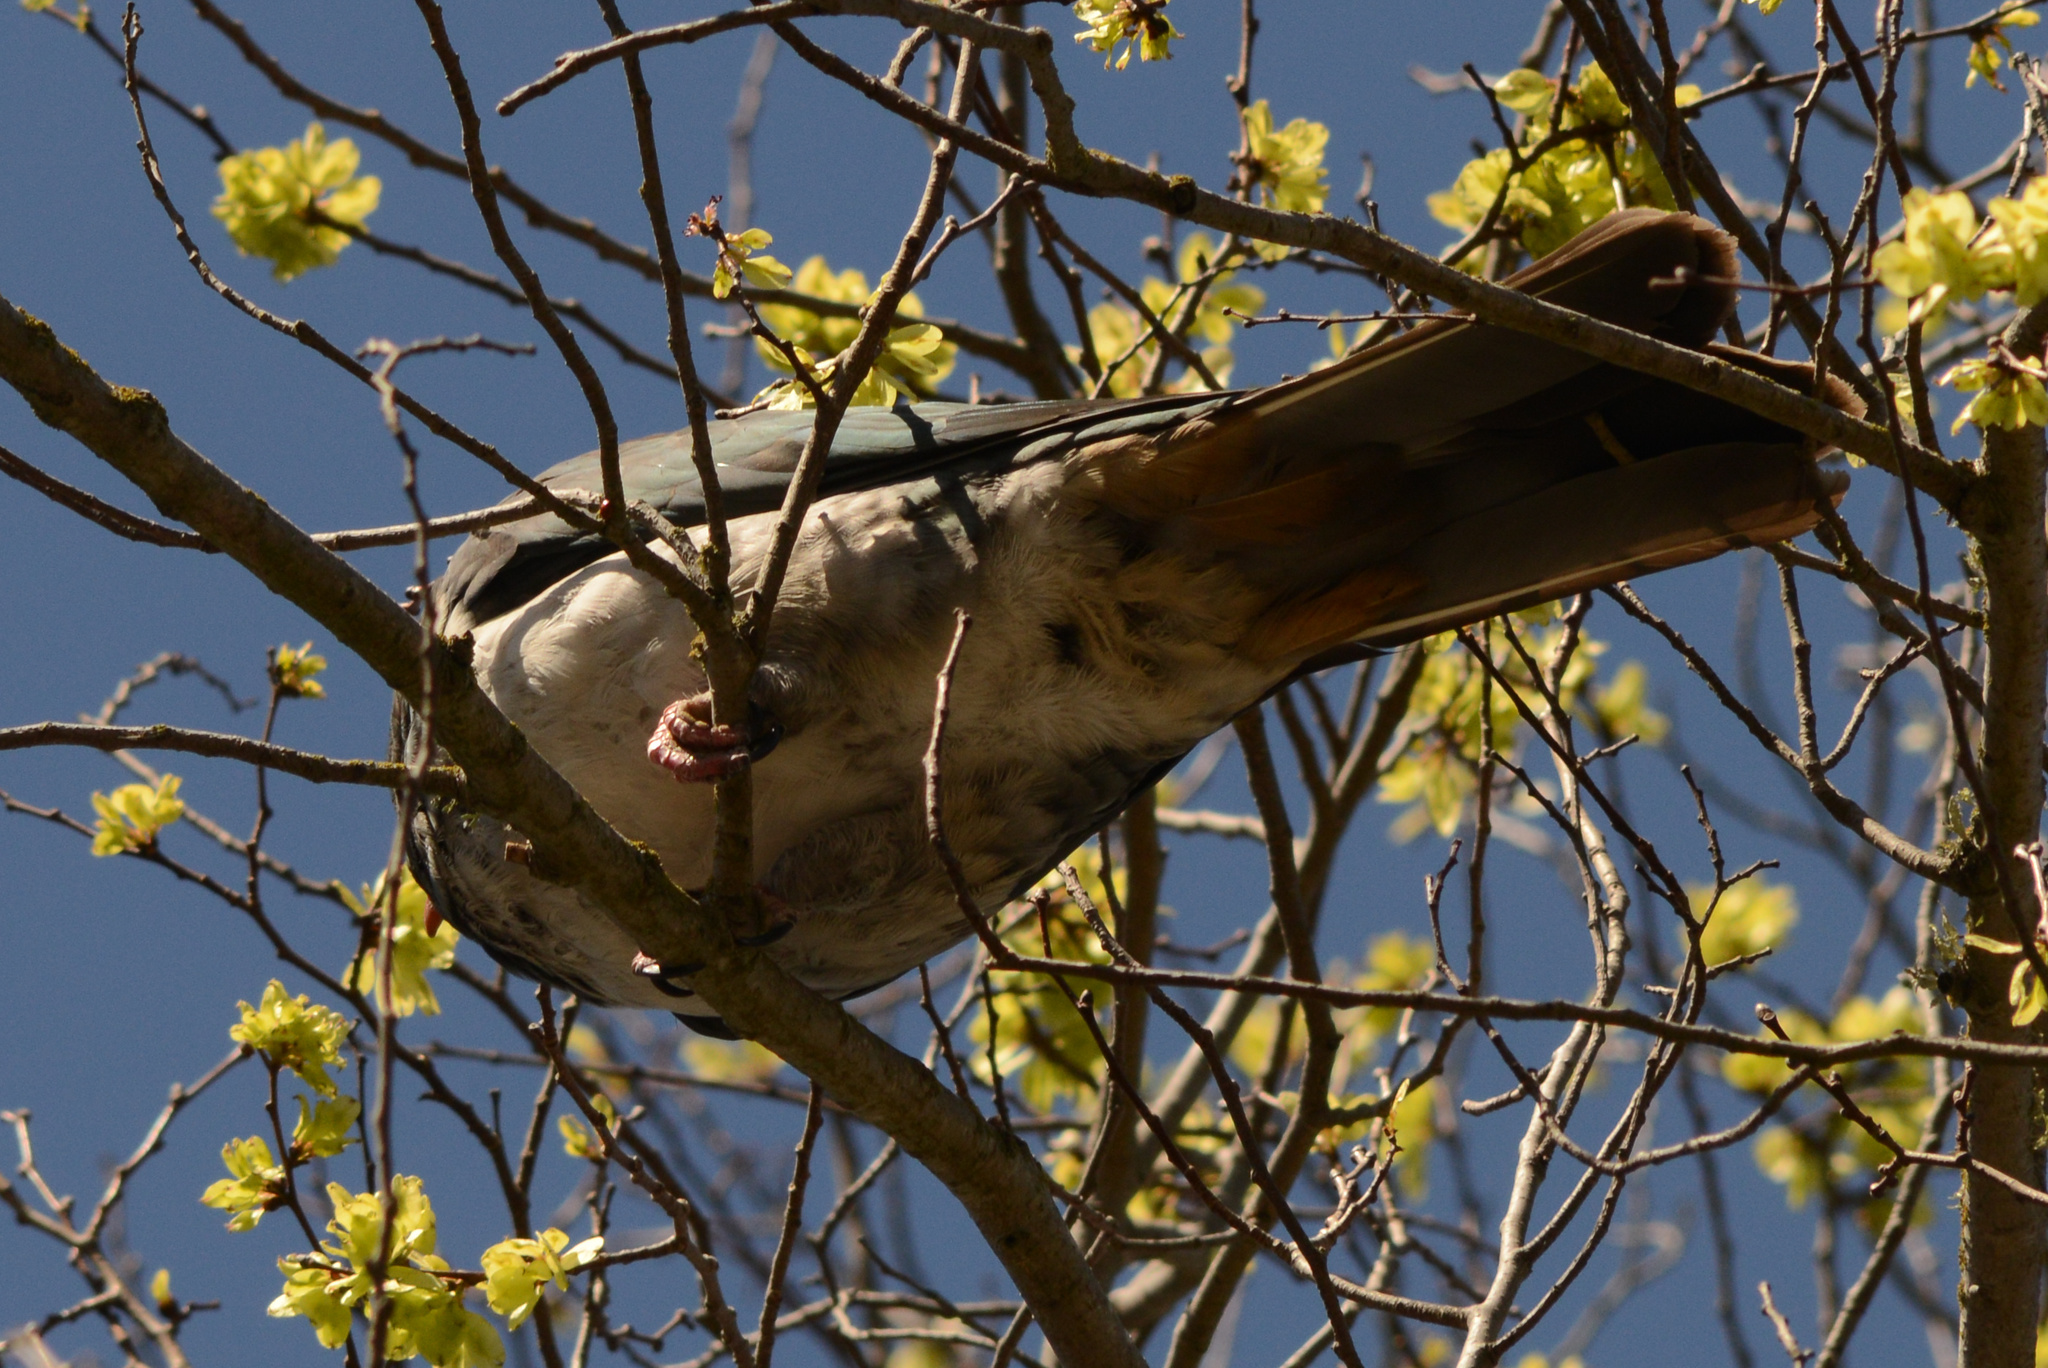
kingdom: Animalia
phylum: Chordata
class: Aves
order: Columbiformes
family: Columbidae
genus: Hemiphaga
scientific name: Hemiphaga novaeseelandiae
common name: New zealand pigeon
